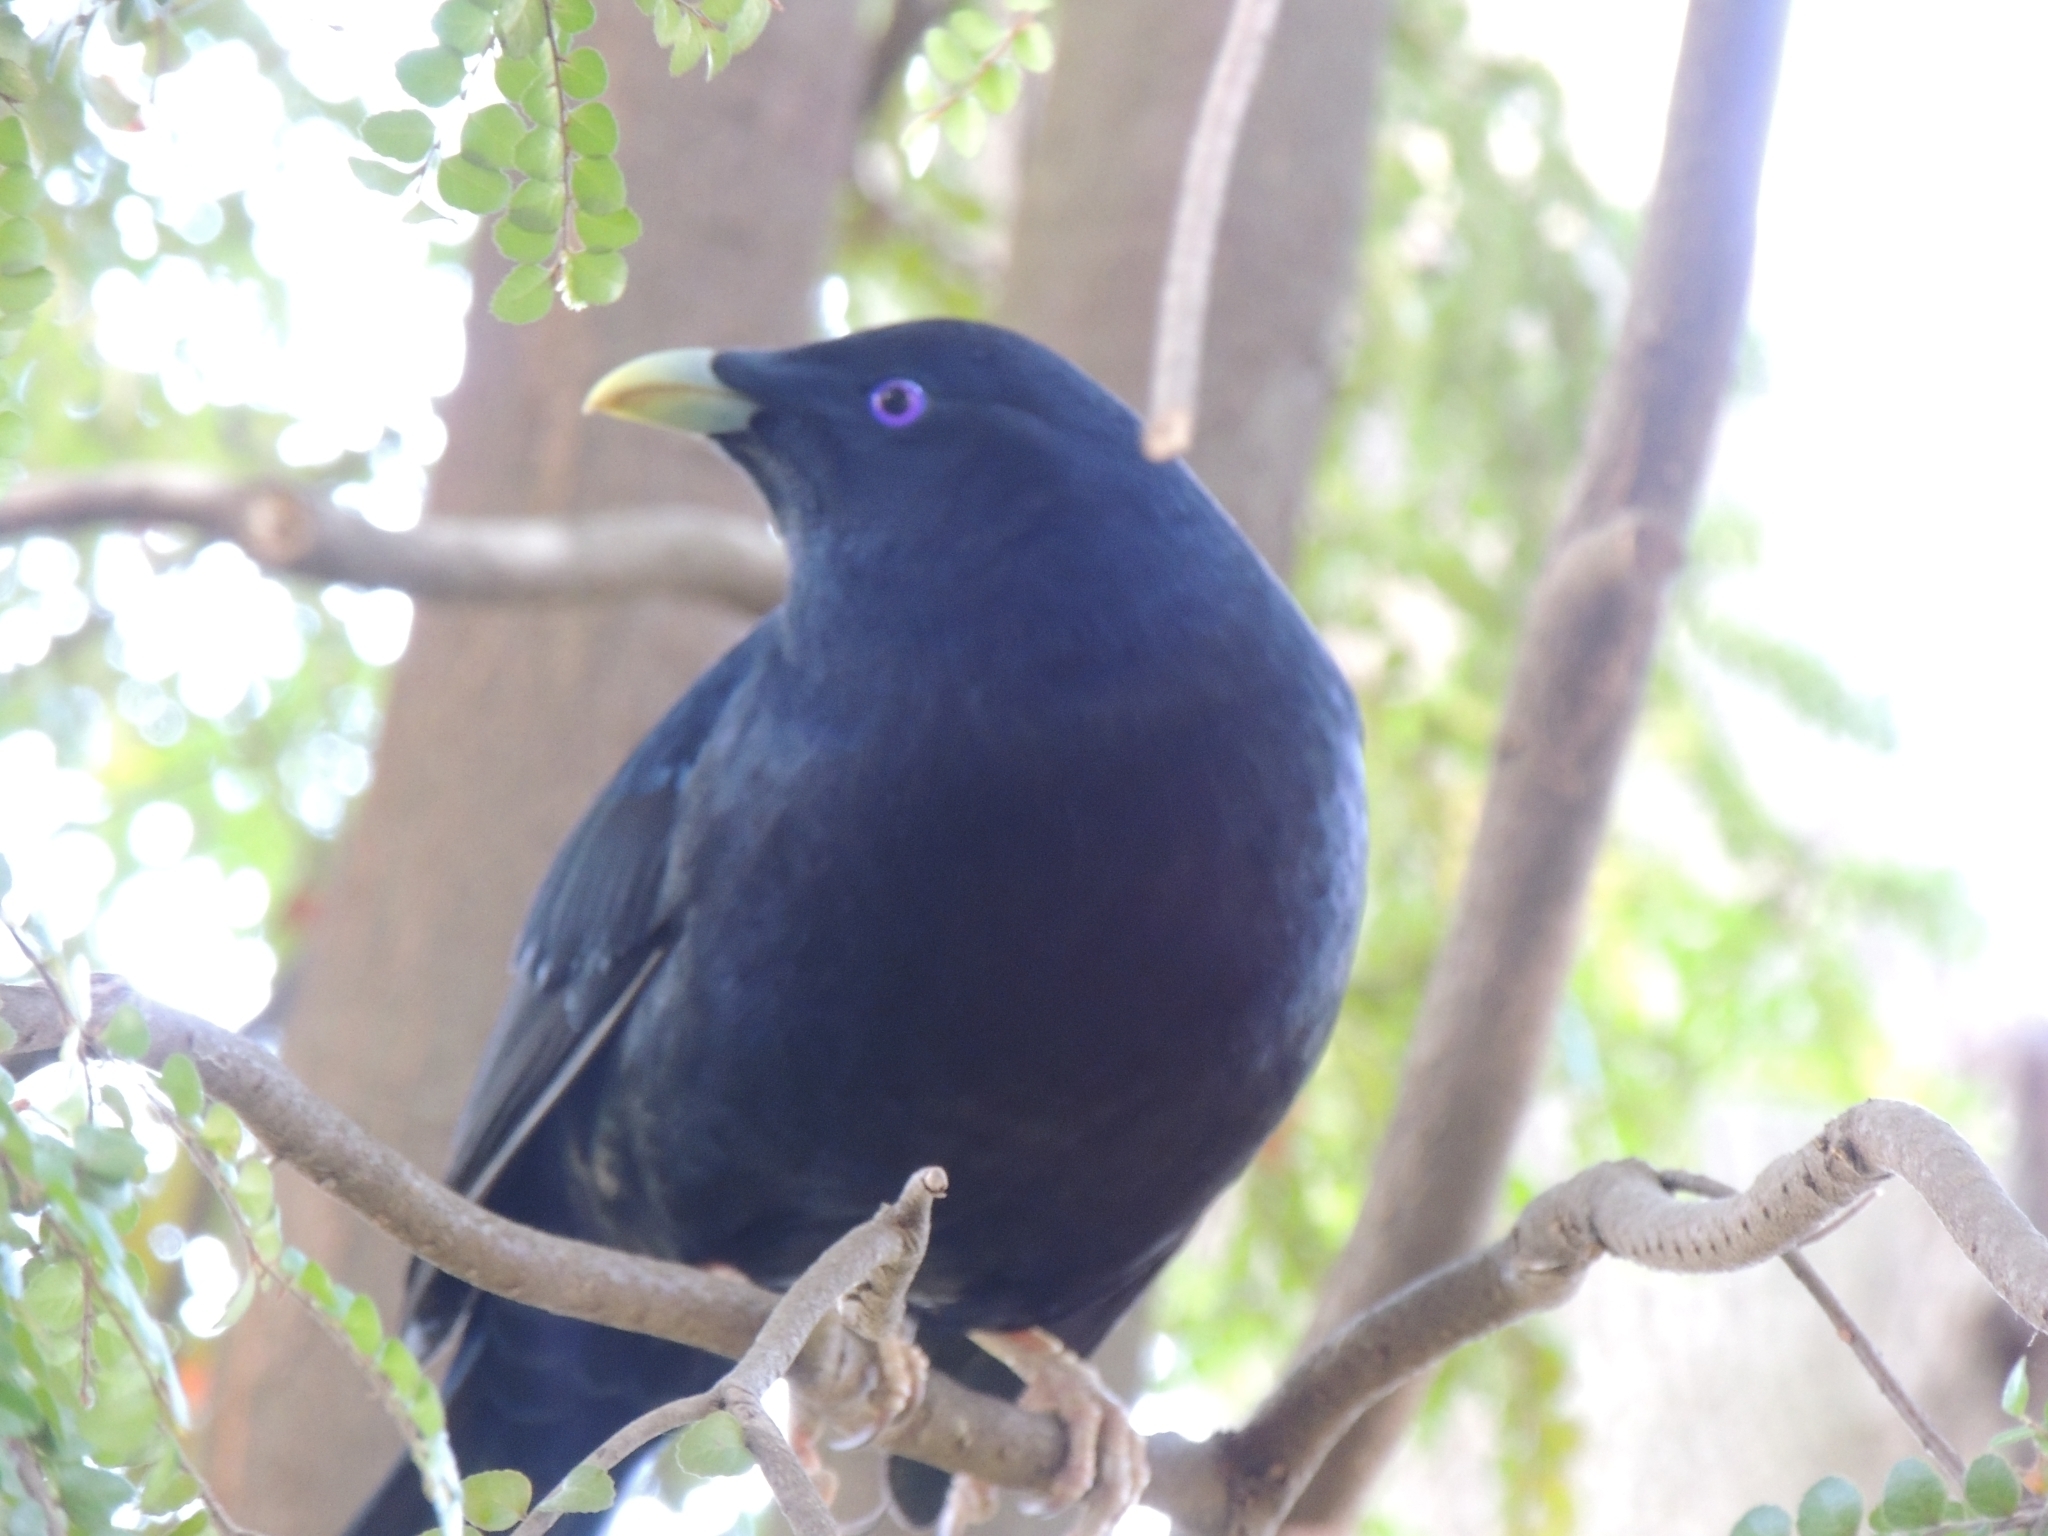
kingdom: Animalia
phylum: Chordata
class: Aves
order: Passeriformes
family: Ptilonorhynchidae
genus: Ptilonorhynchus
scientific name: Ptilonorhynchus violaceus
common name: Satin bowerbird
